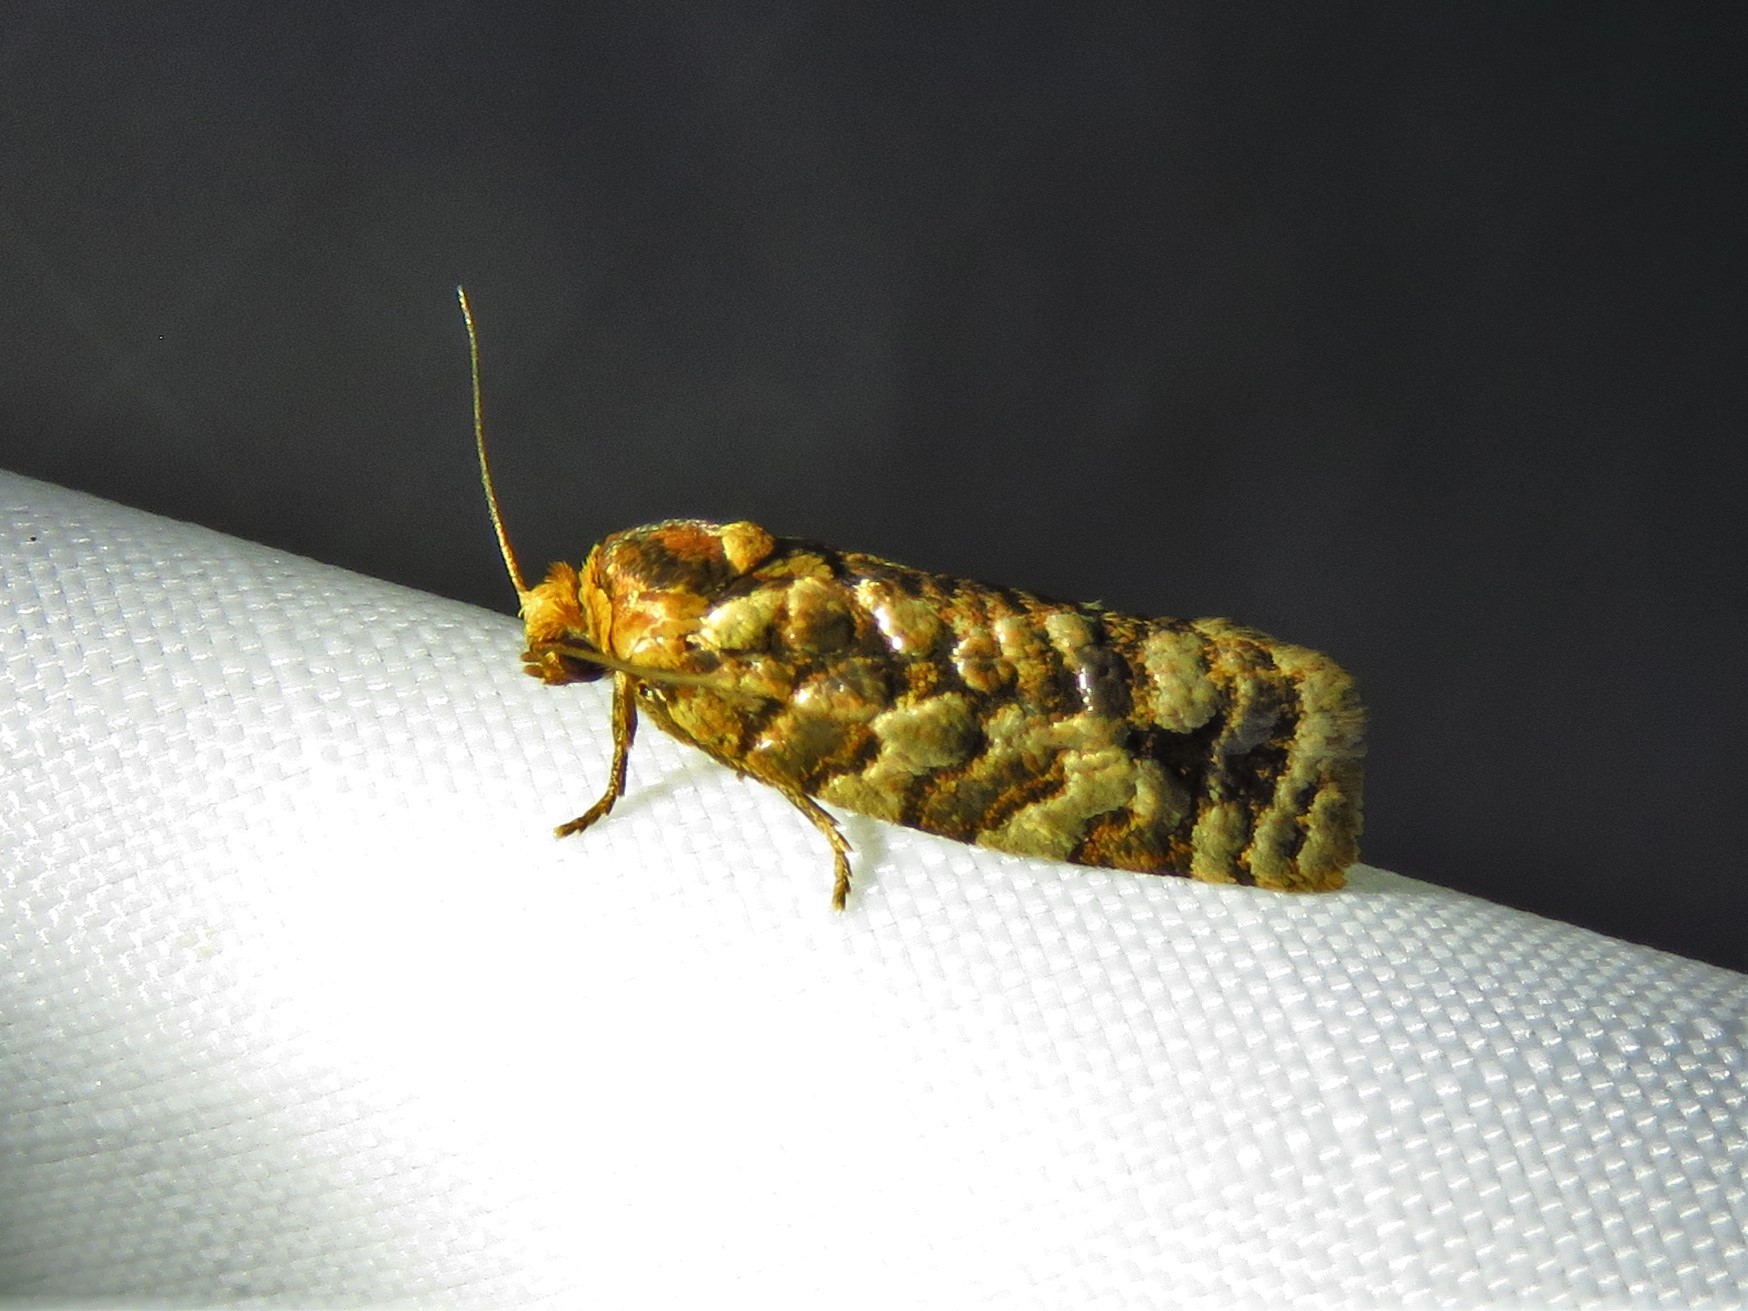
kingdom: Animalia
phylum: Arthropoda
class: Insecta
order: Lepidoptera
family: Tortricidae
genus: Choristoneura
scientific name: Choristoneura houstonana
